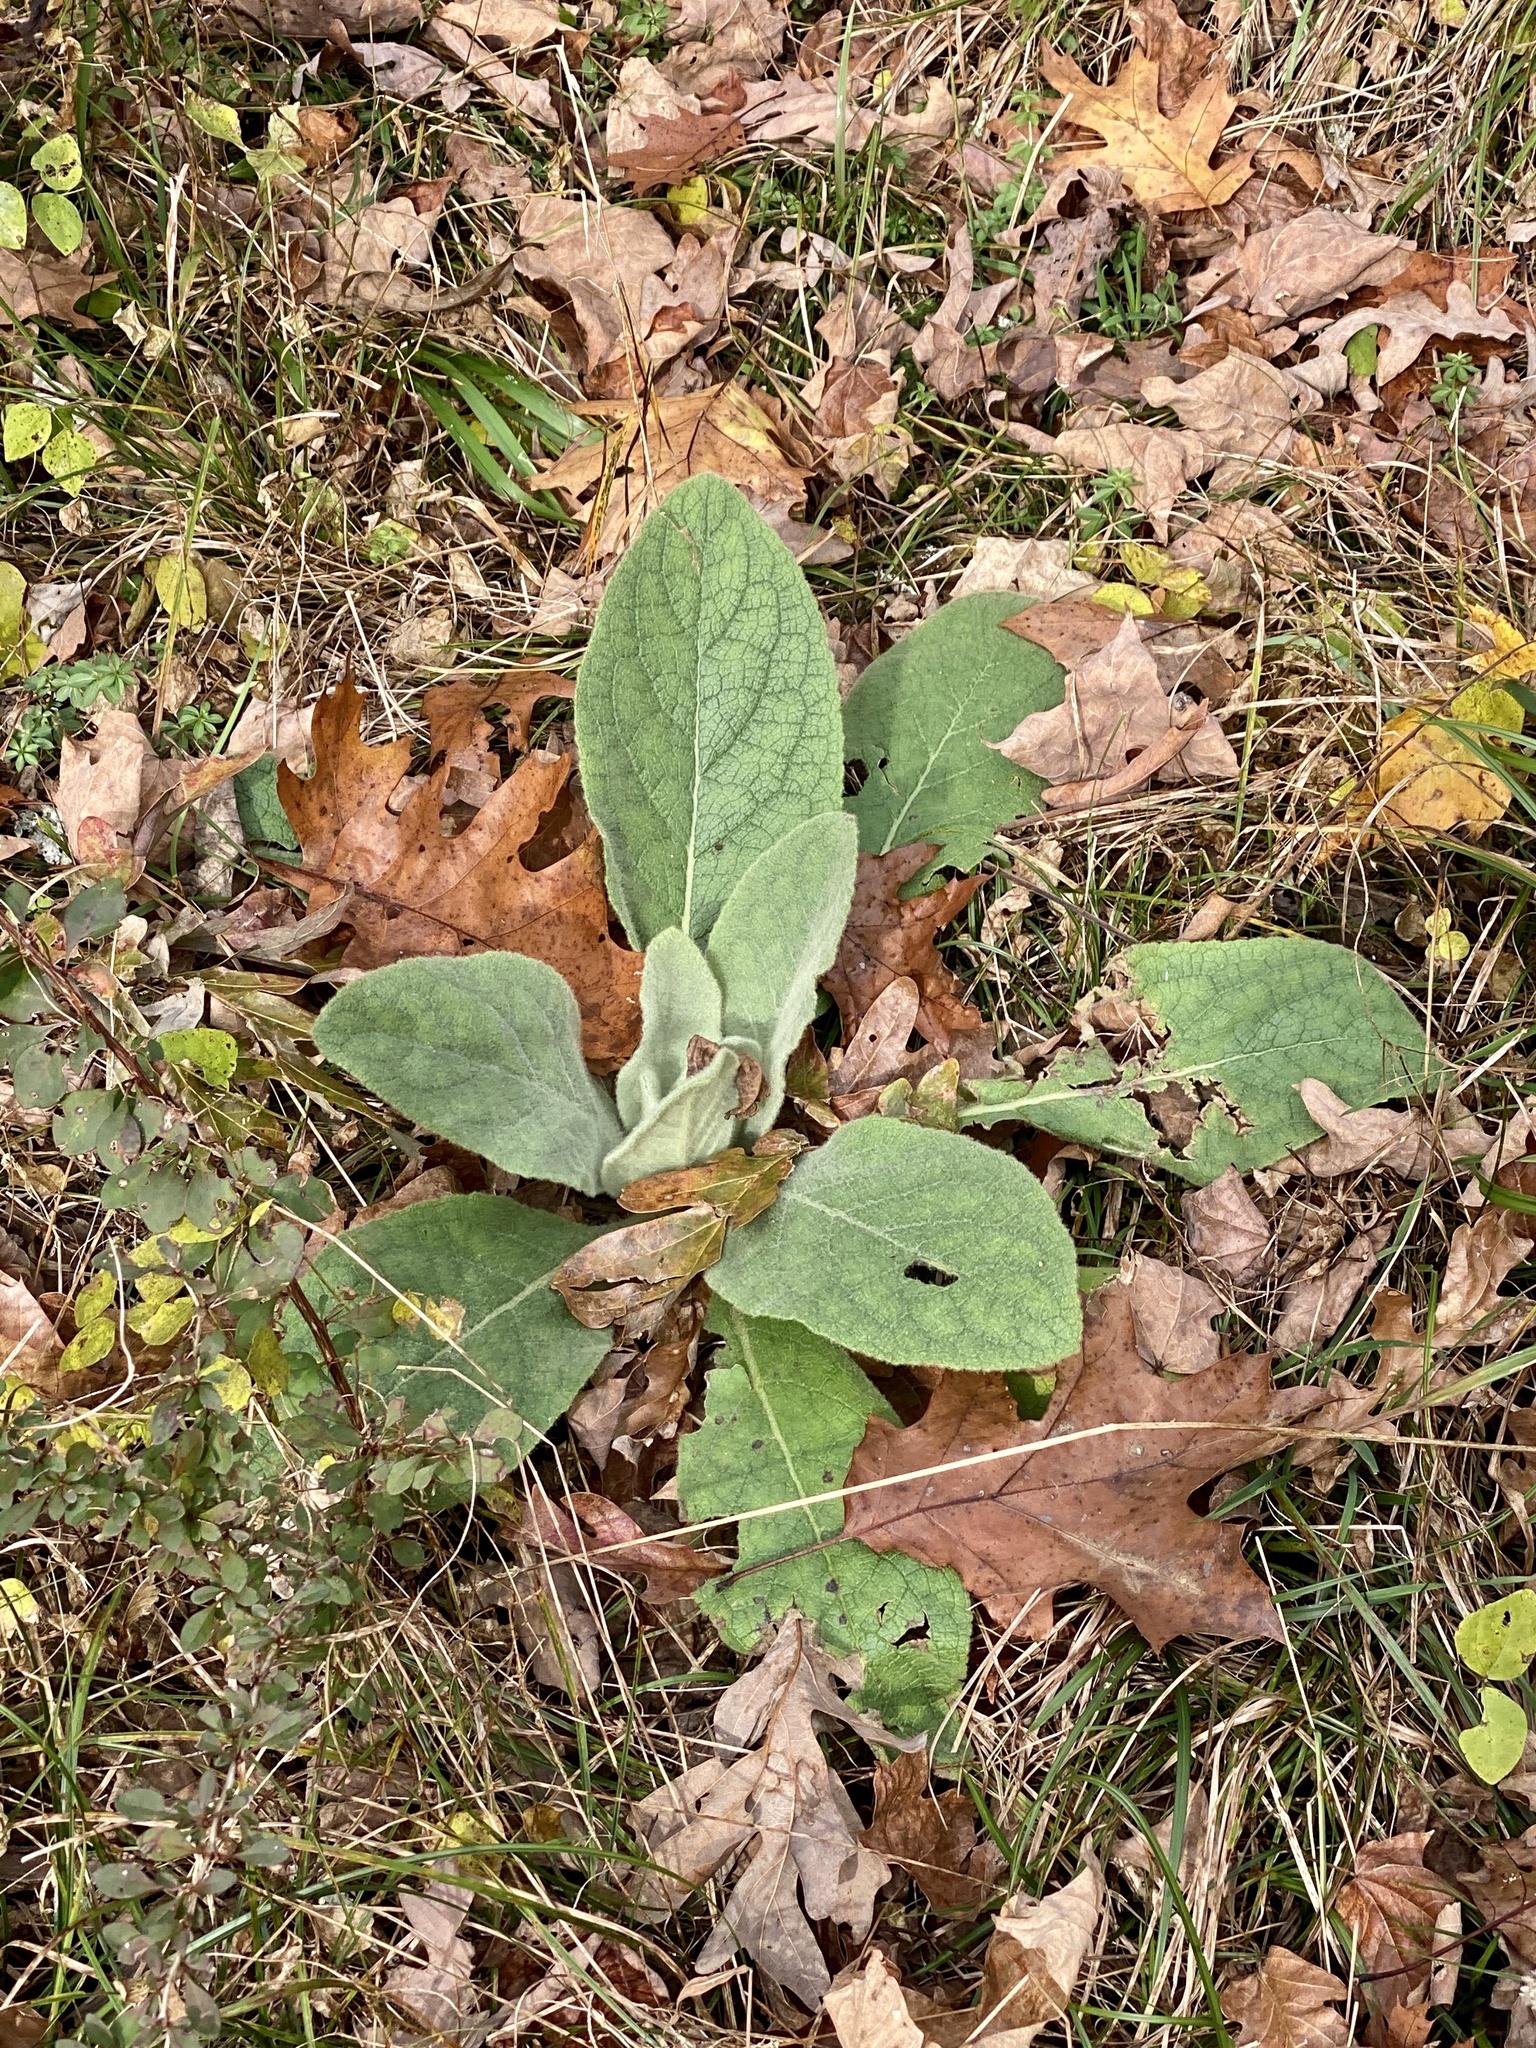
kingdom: Plantae
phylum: Tracheophyta
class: Magnoliopsida
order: Lamiales
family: Scrophulariaceae
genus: Verbascum
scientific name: Verbascum thapsus
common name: Common mullein
